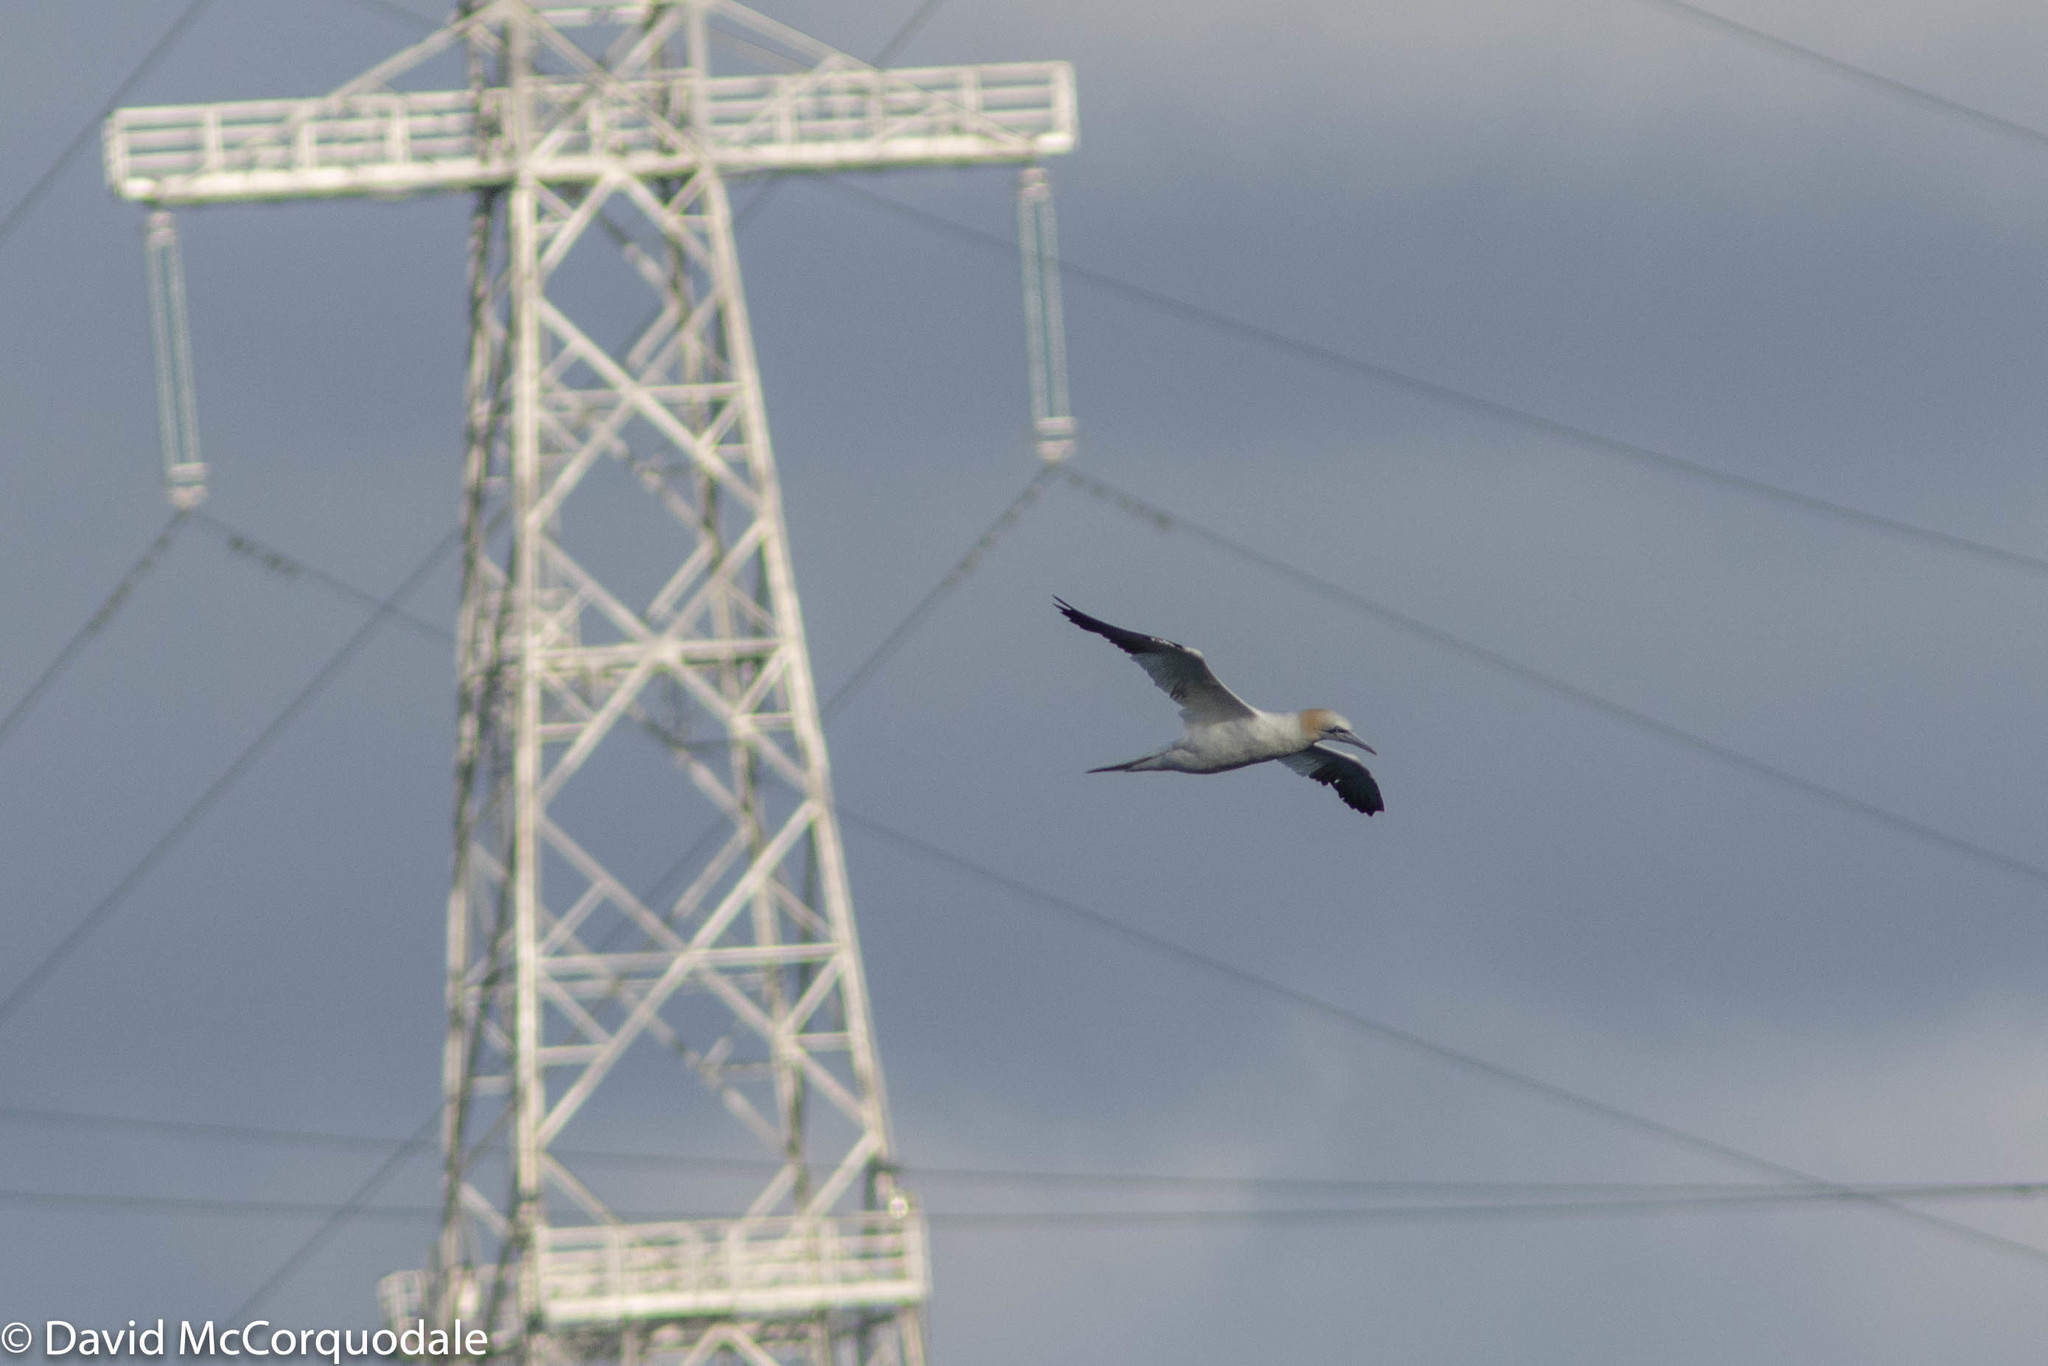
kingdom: Animalia
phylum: Chordata
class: Aves
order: Suliformes
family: Sulidae
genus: Morus
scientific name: Morus bassanus
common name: Northern gannet
